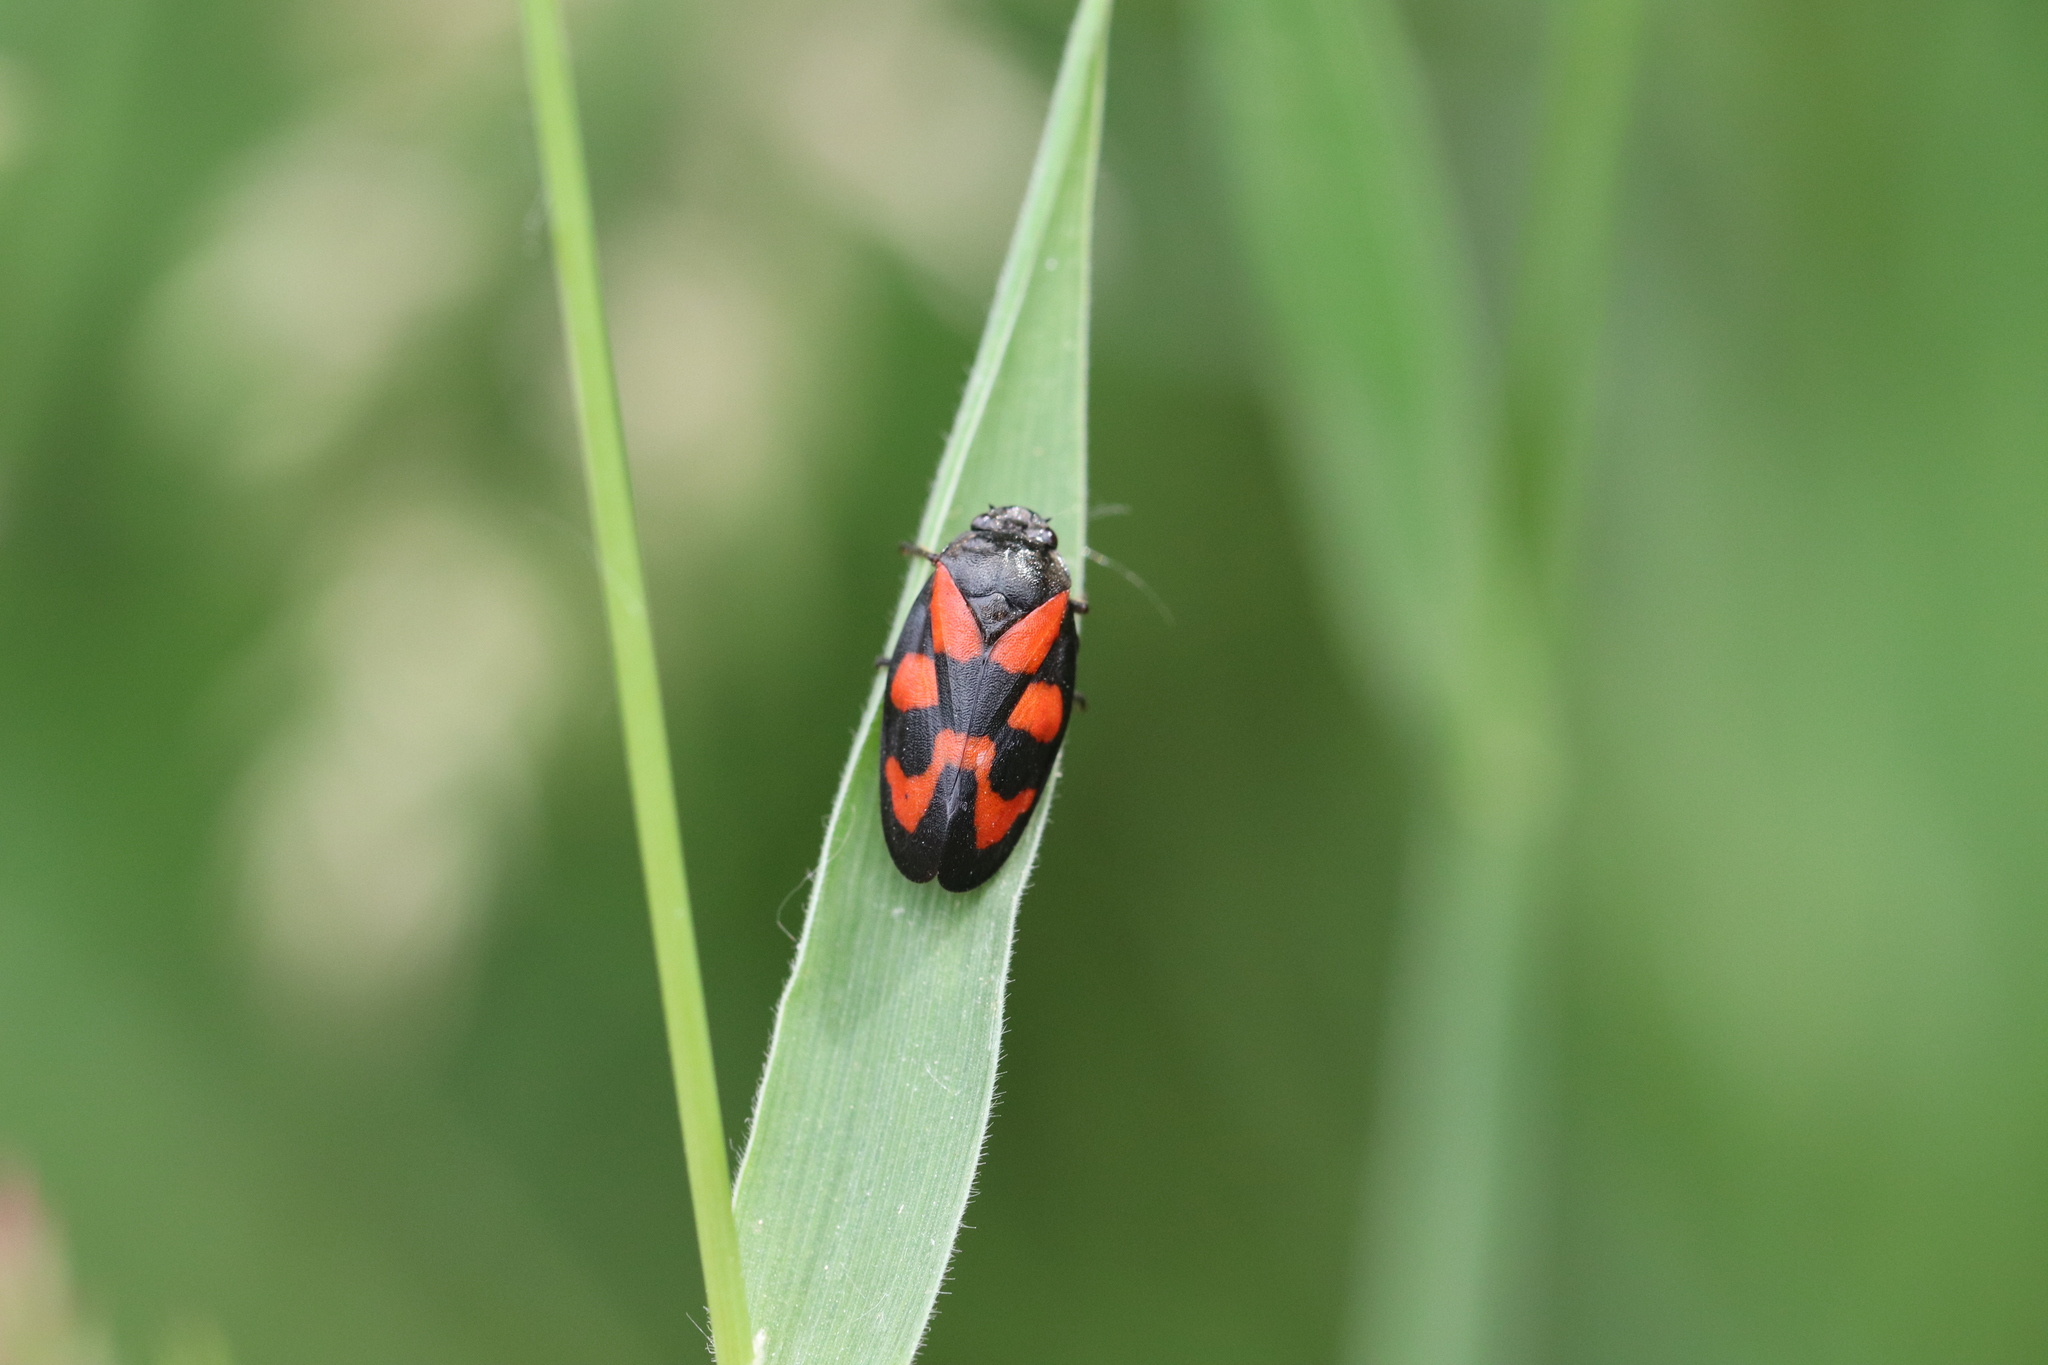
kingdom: Animalia
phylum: Arthropoda
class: Insecta
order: Hemiptera
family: Cercopidae
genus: Cercopis
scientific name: Cercopis vulnerata
